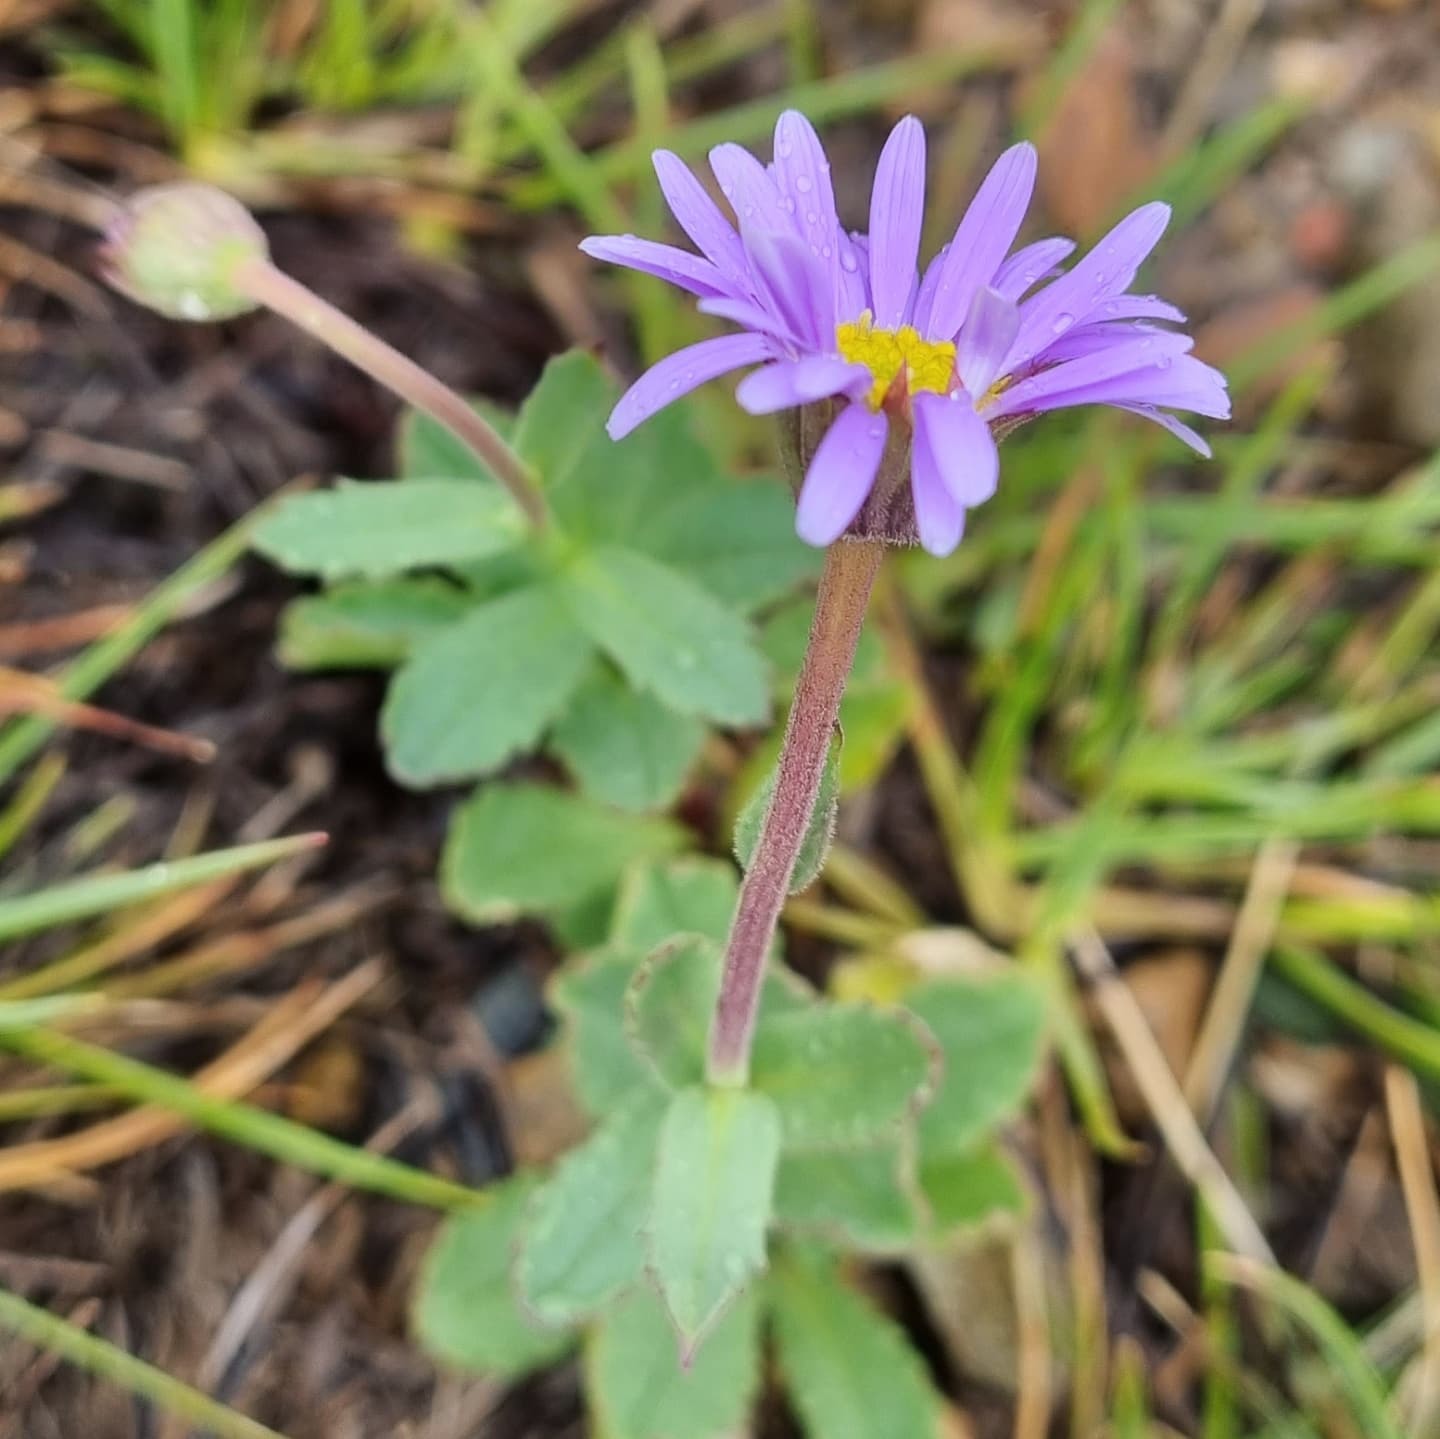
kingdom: Plantae
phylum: Tracheophyta
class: Magnoliopsida
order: Asterales
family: Asteraceae
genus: Brachyscome
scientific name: Brachyscome spathulata
